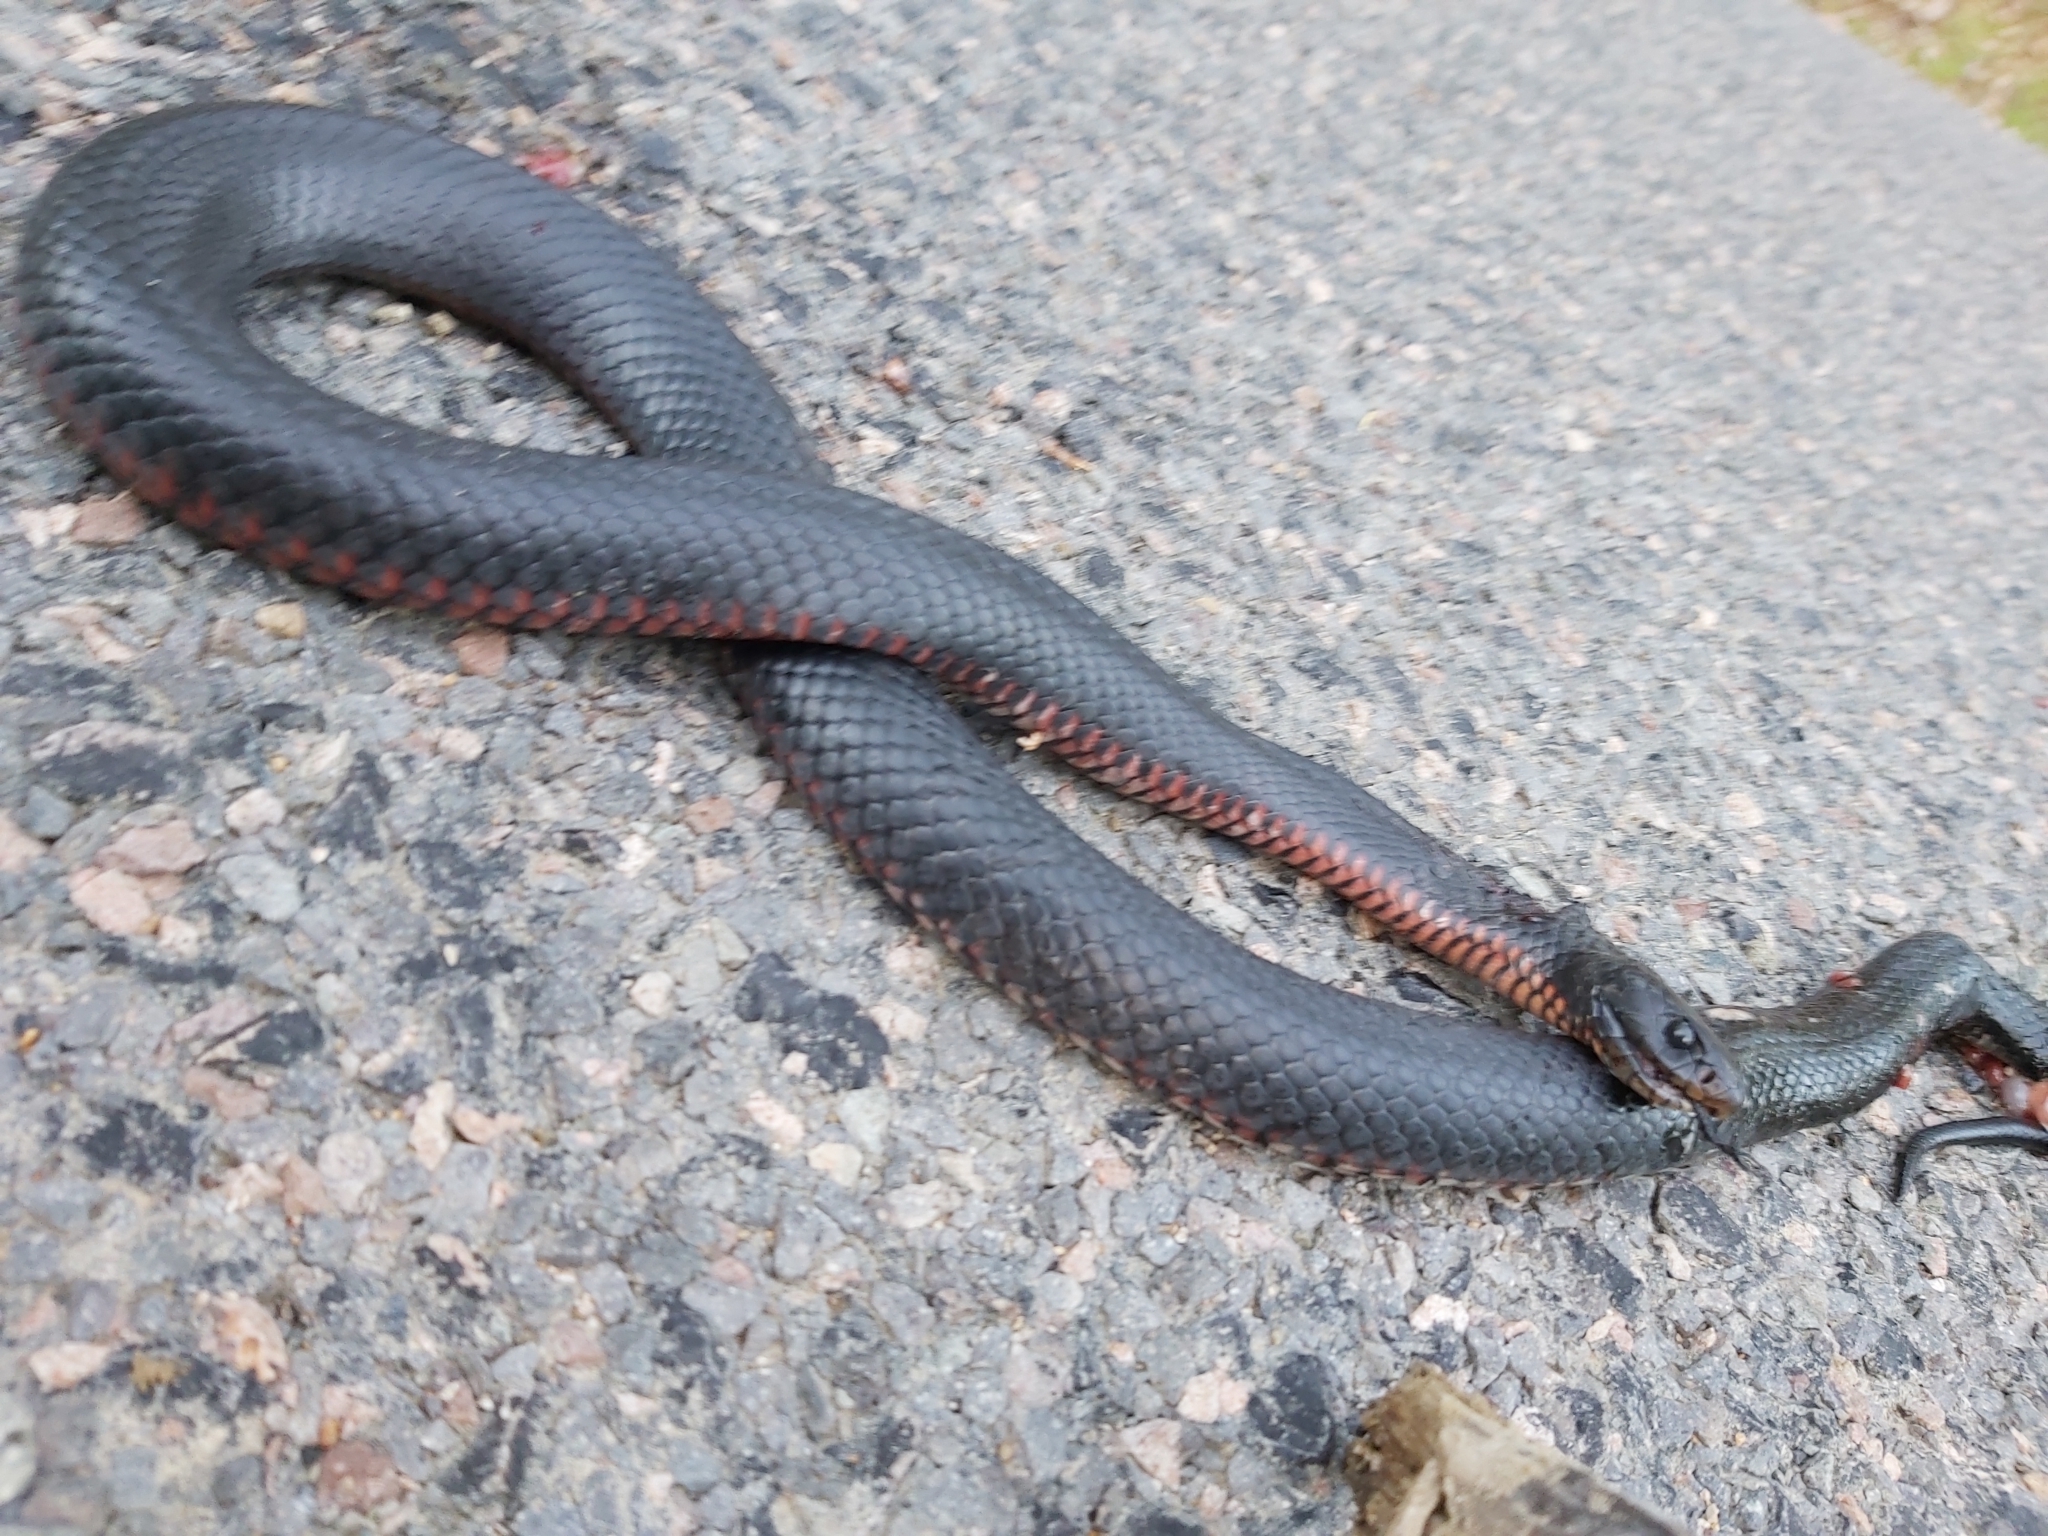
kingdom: Animalia
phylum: Chordata
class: Squamata
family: Elapidae
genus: Pseudechis
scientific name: Pseudechis porphyriacus
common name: Australian black snake
